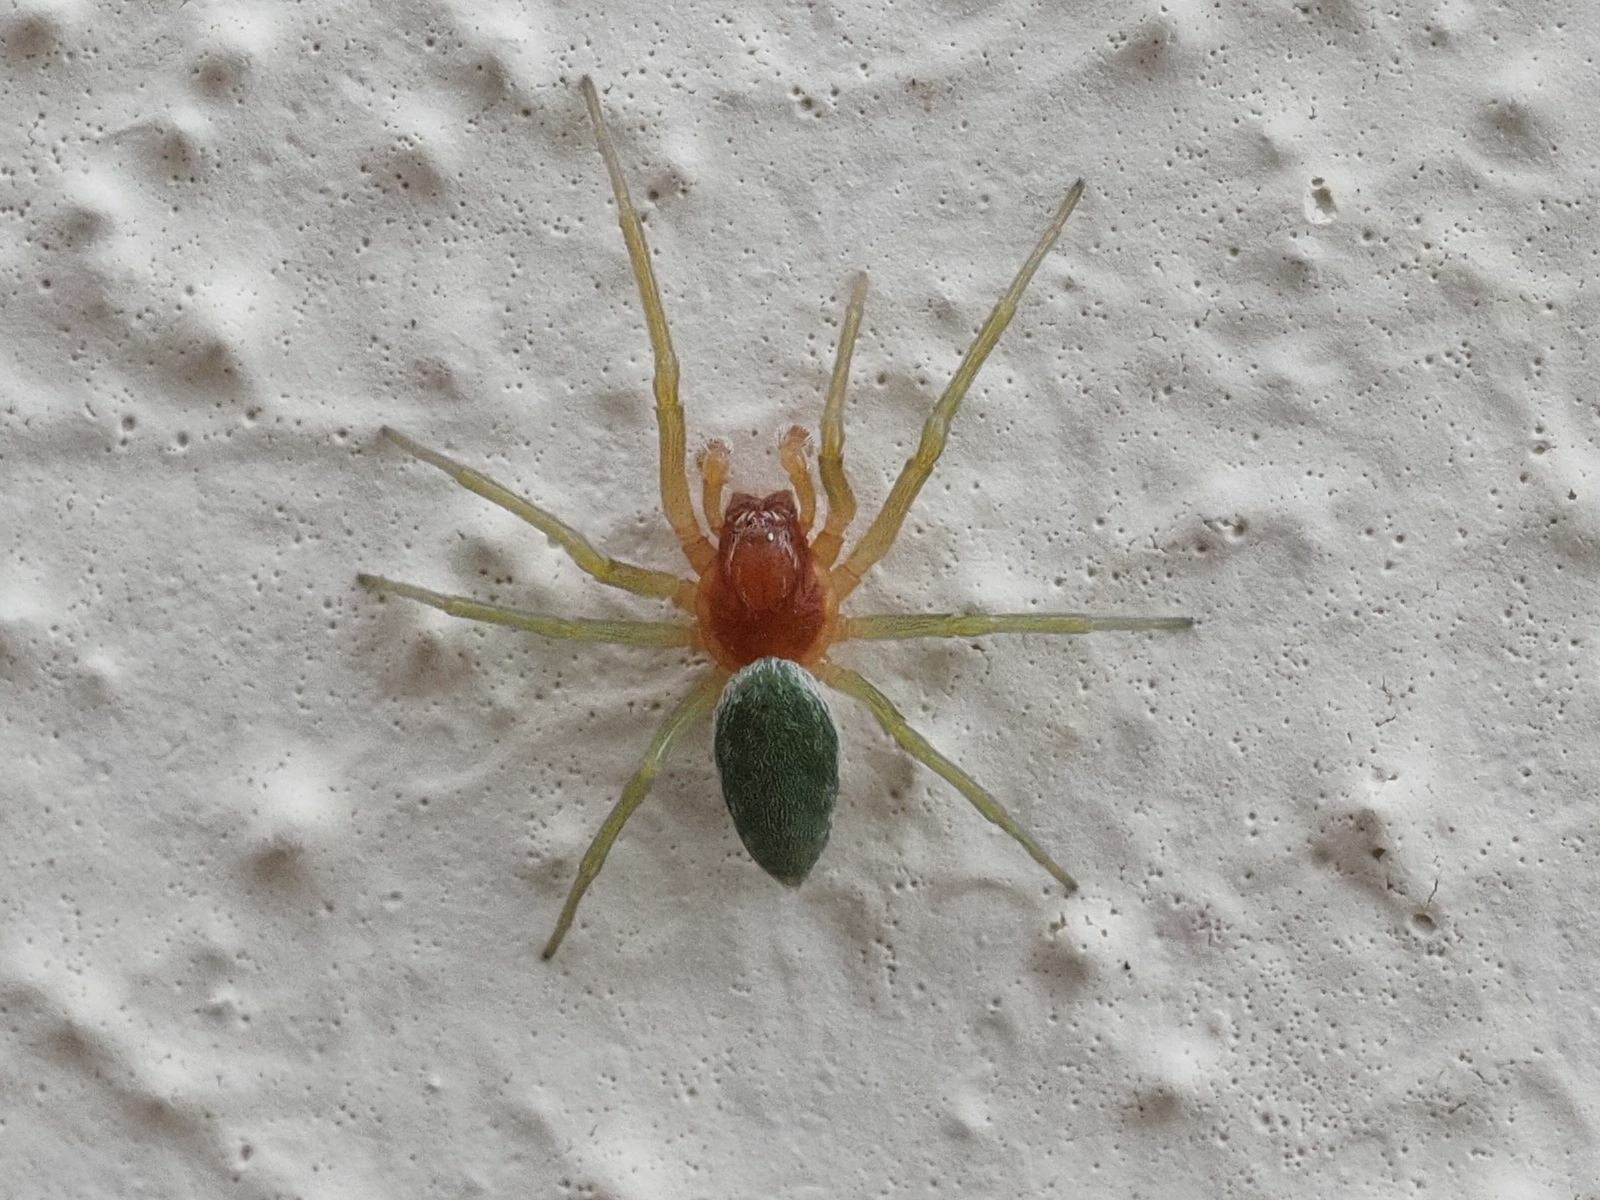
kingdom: Animalia
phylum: Arthropoda
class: Arachnida
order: Araneae
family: Dictynidae
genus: Nigma
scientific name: Nigma walckenaeri
